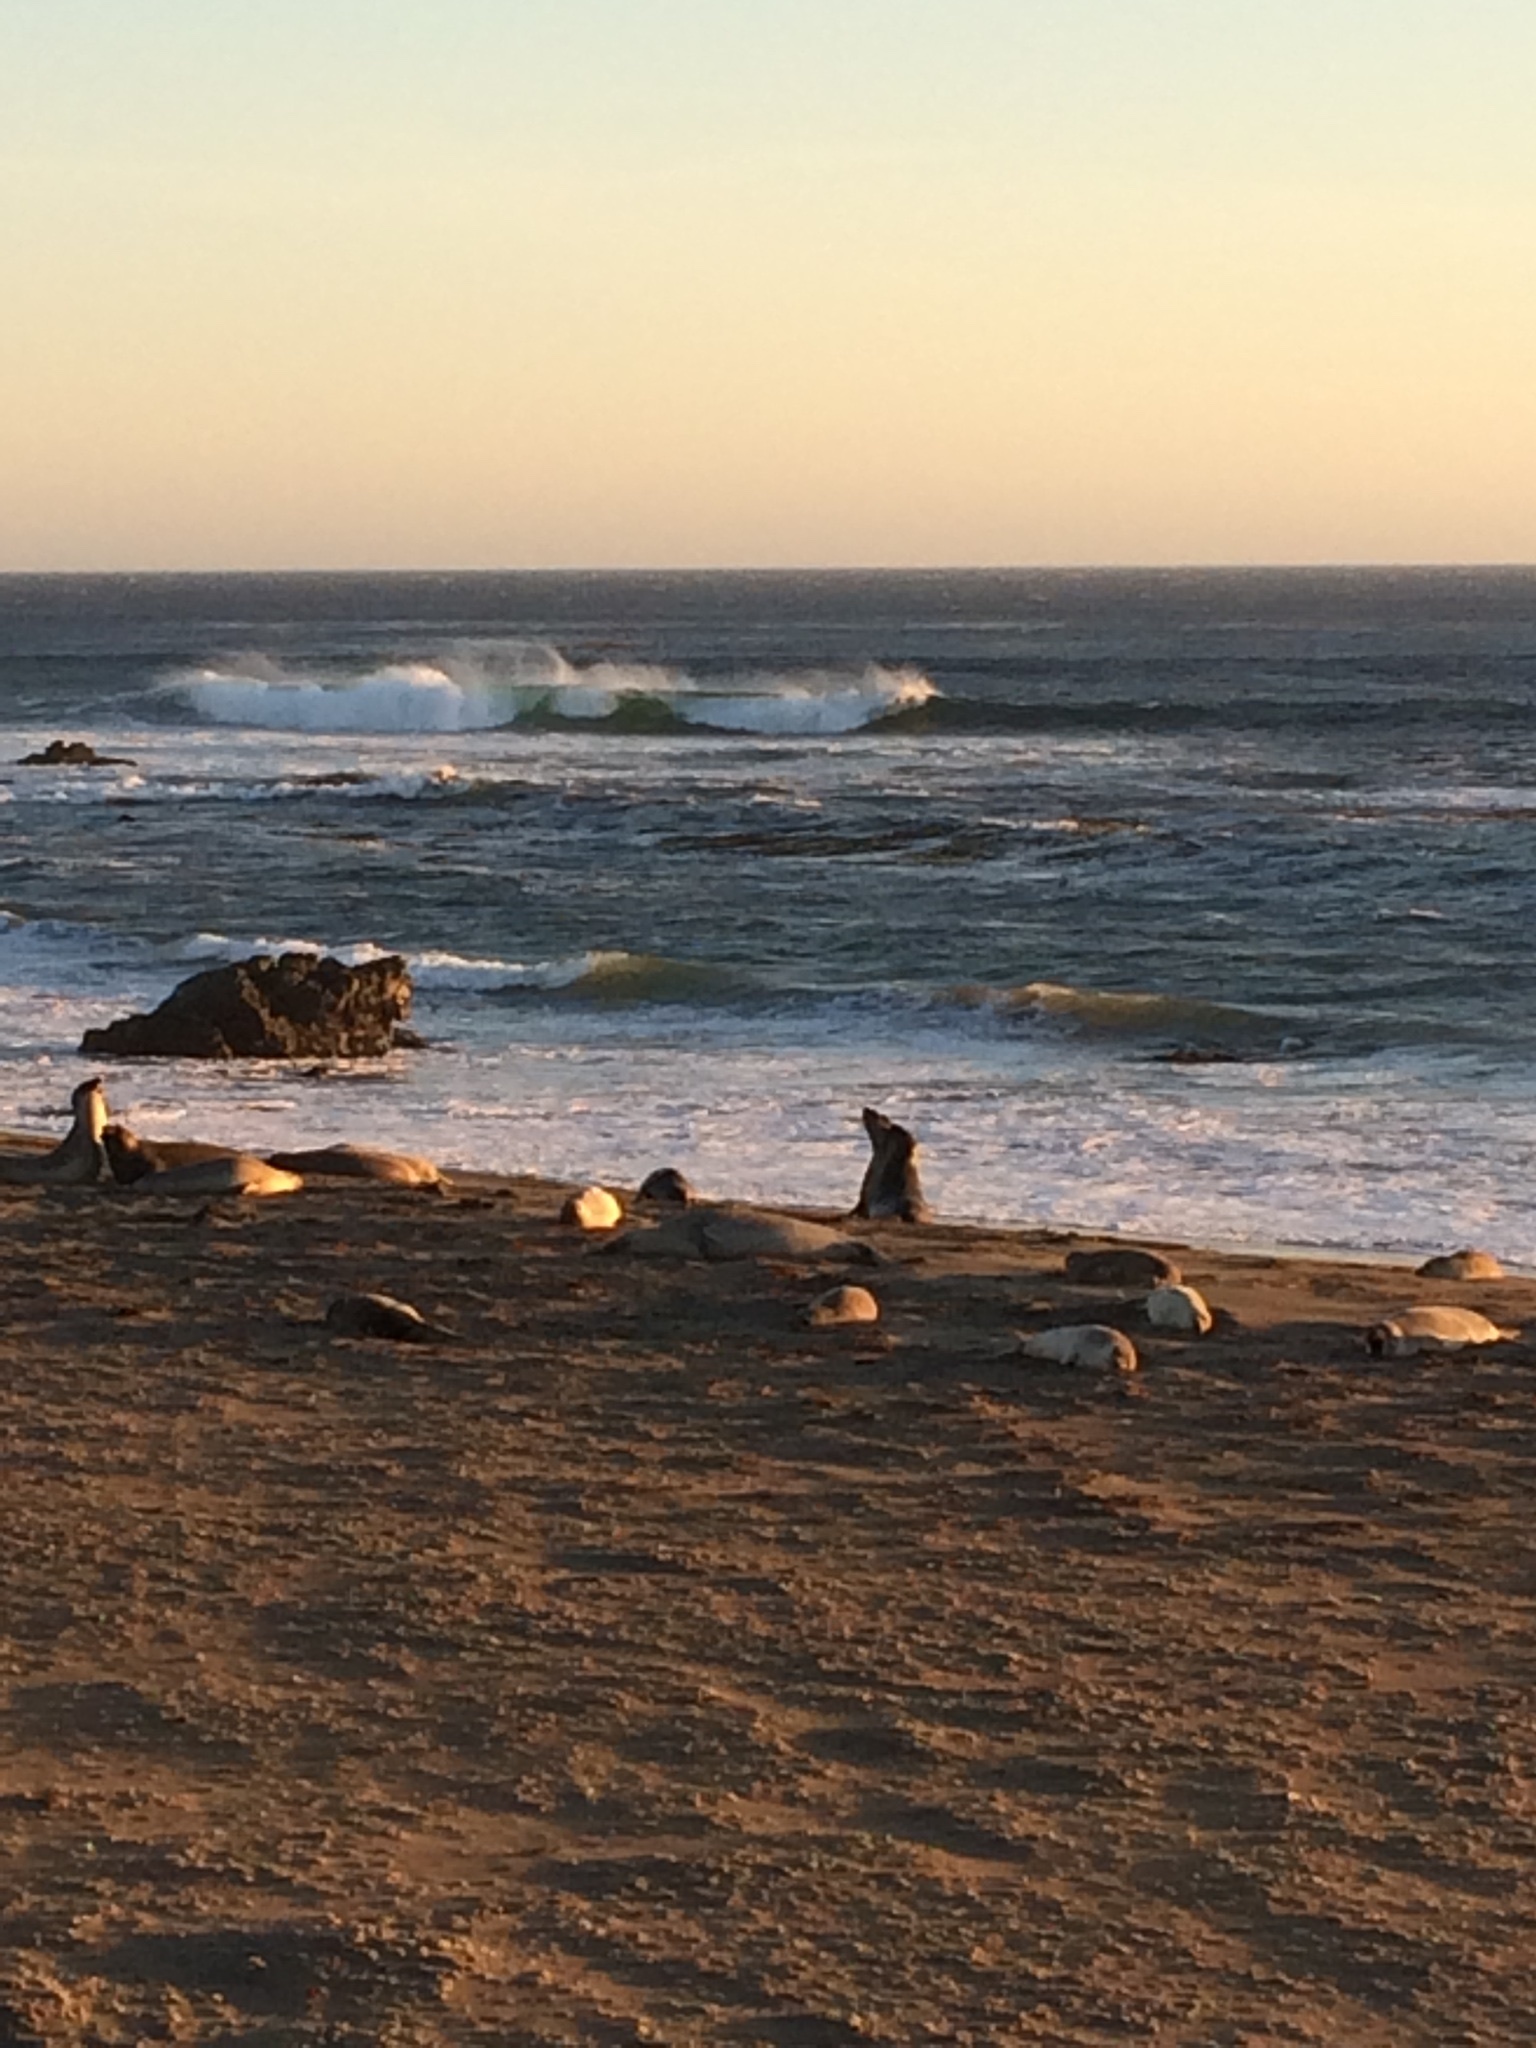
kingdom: Animalia
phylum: Chordata
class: Mammalia
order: Carnivora
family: Phocidae
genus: Mirounga
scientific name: Mirounga angustirostris
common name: Northern elephant seal
